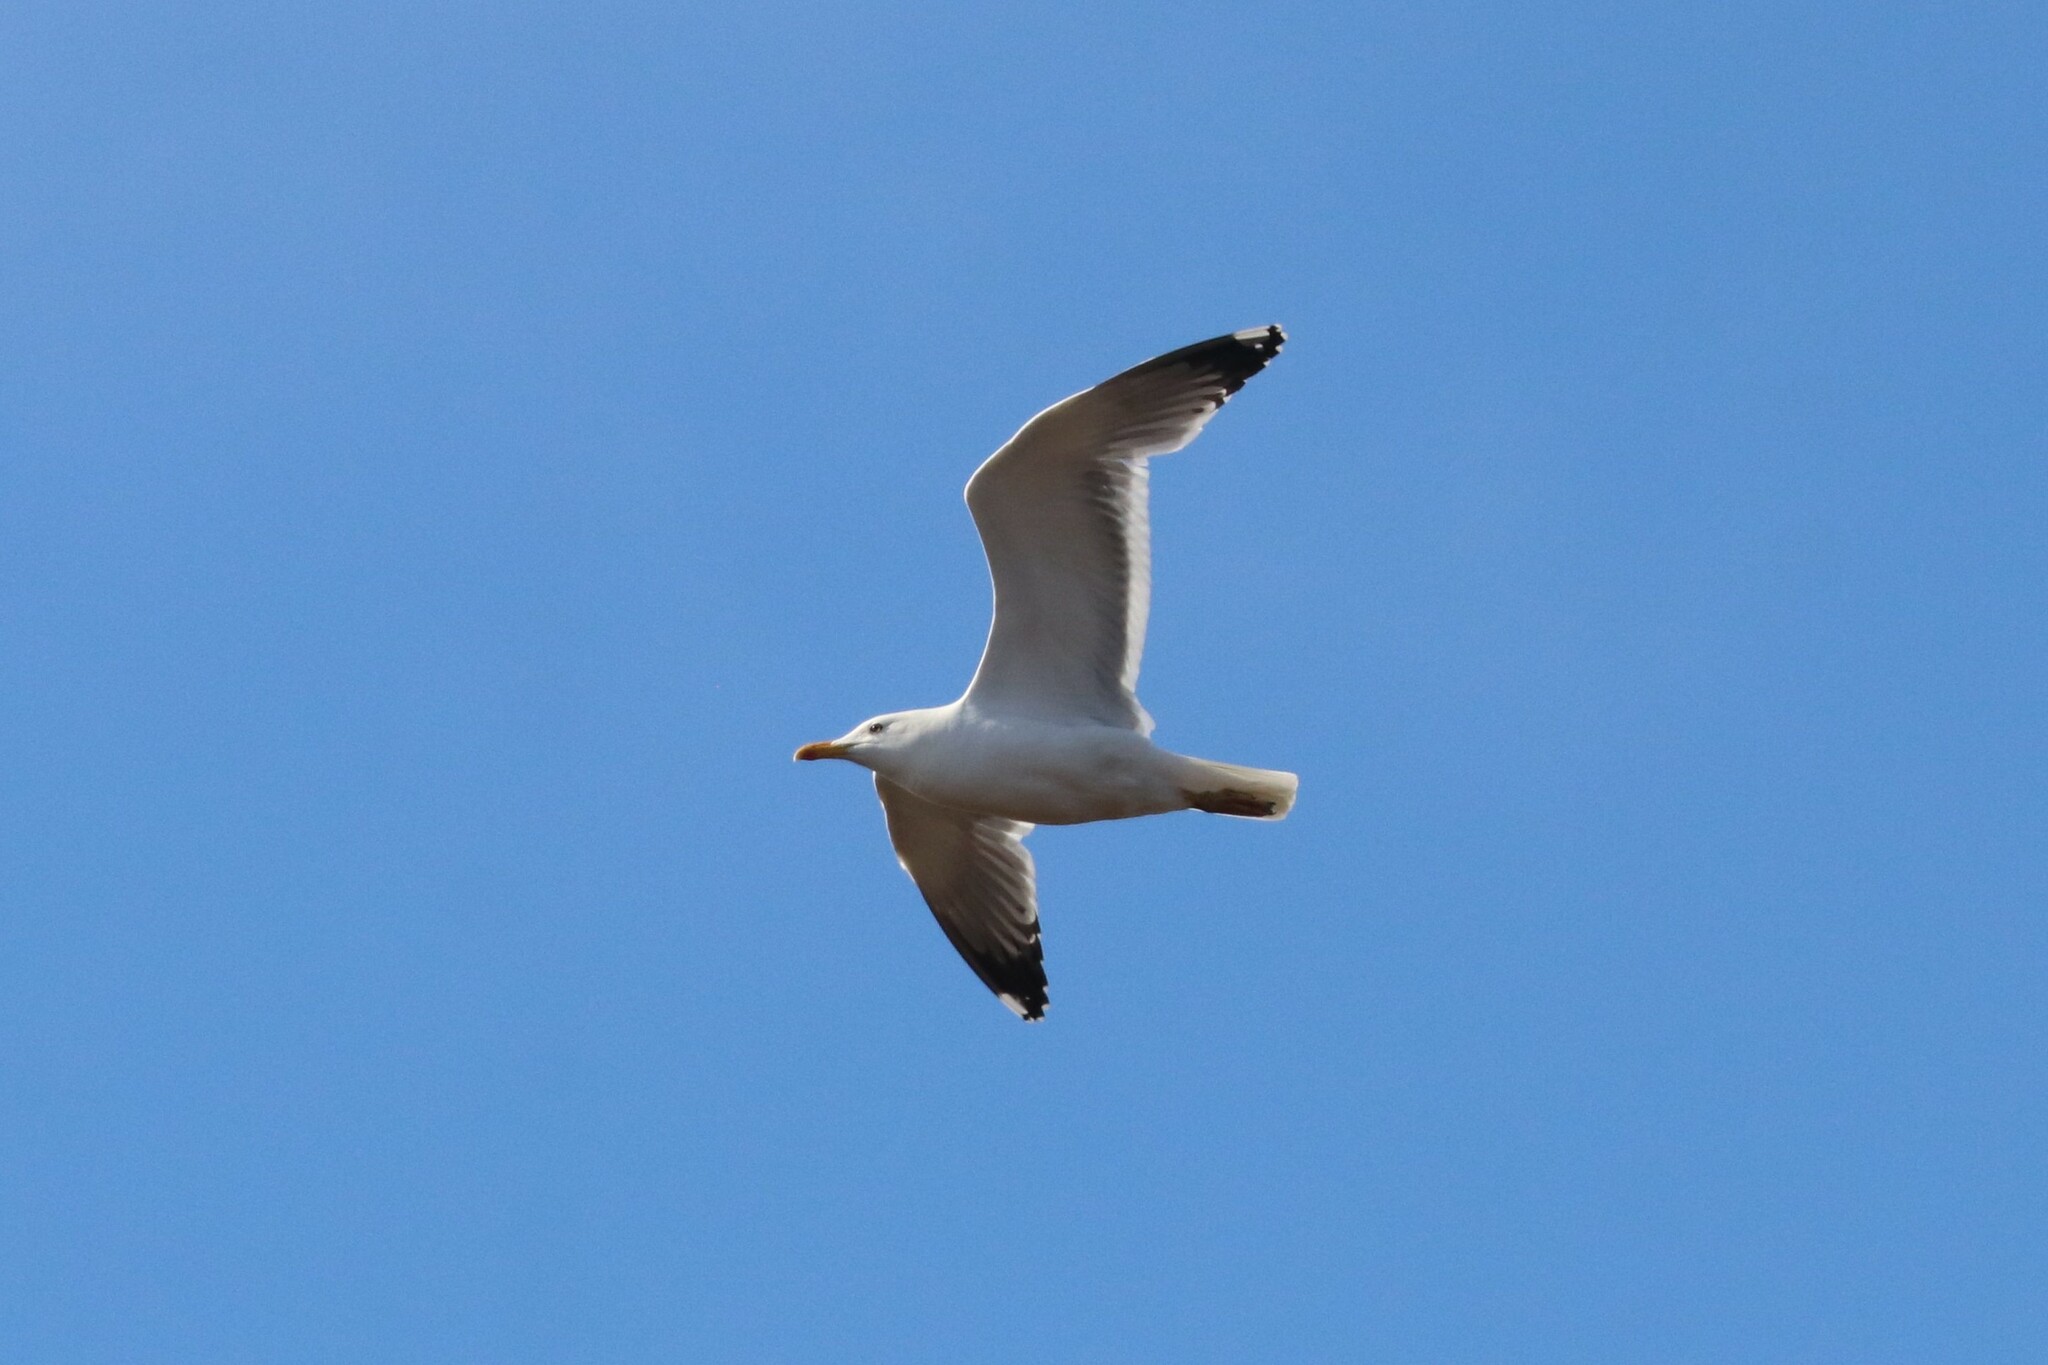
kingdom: Animalia
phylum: Chordata
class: Aves
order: Charadriiformes
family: Laridae
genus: Larus
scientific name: Larus fuscus
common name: Lesser black-backed gull
